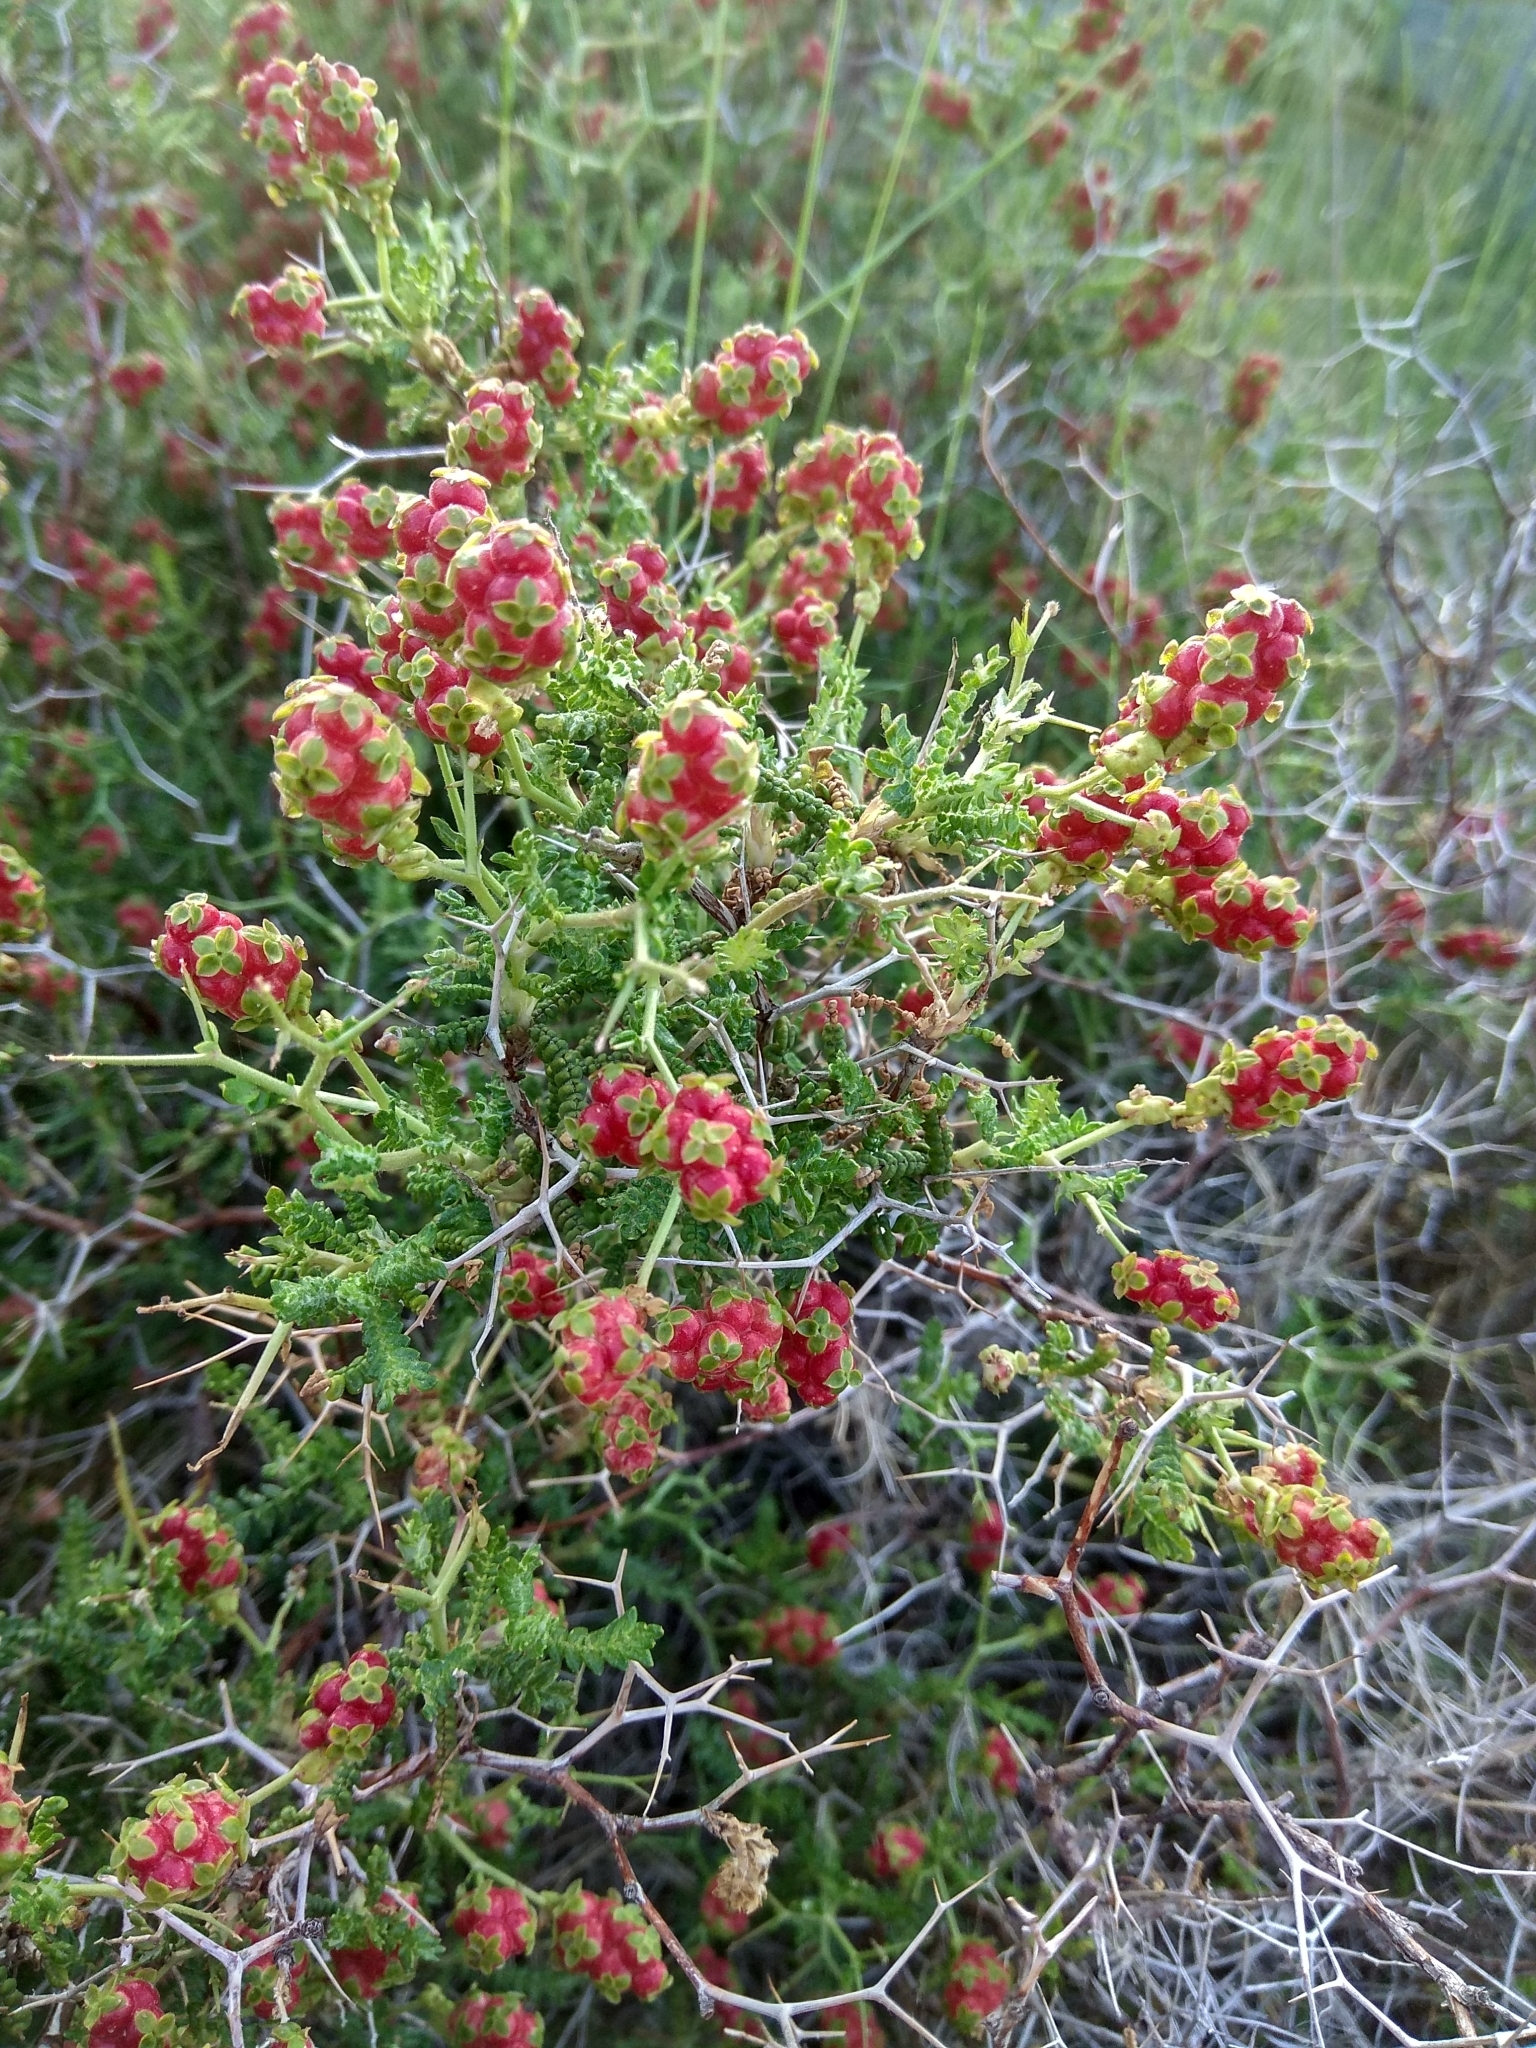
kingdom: Plantae
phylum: Tracheophyta
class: Magnoliopsida
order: Rosales
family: Rosaceae
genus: Sarcopoterium
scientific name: Sarcopoterium spinosum
